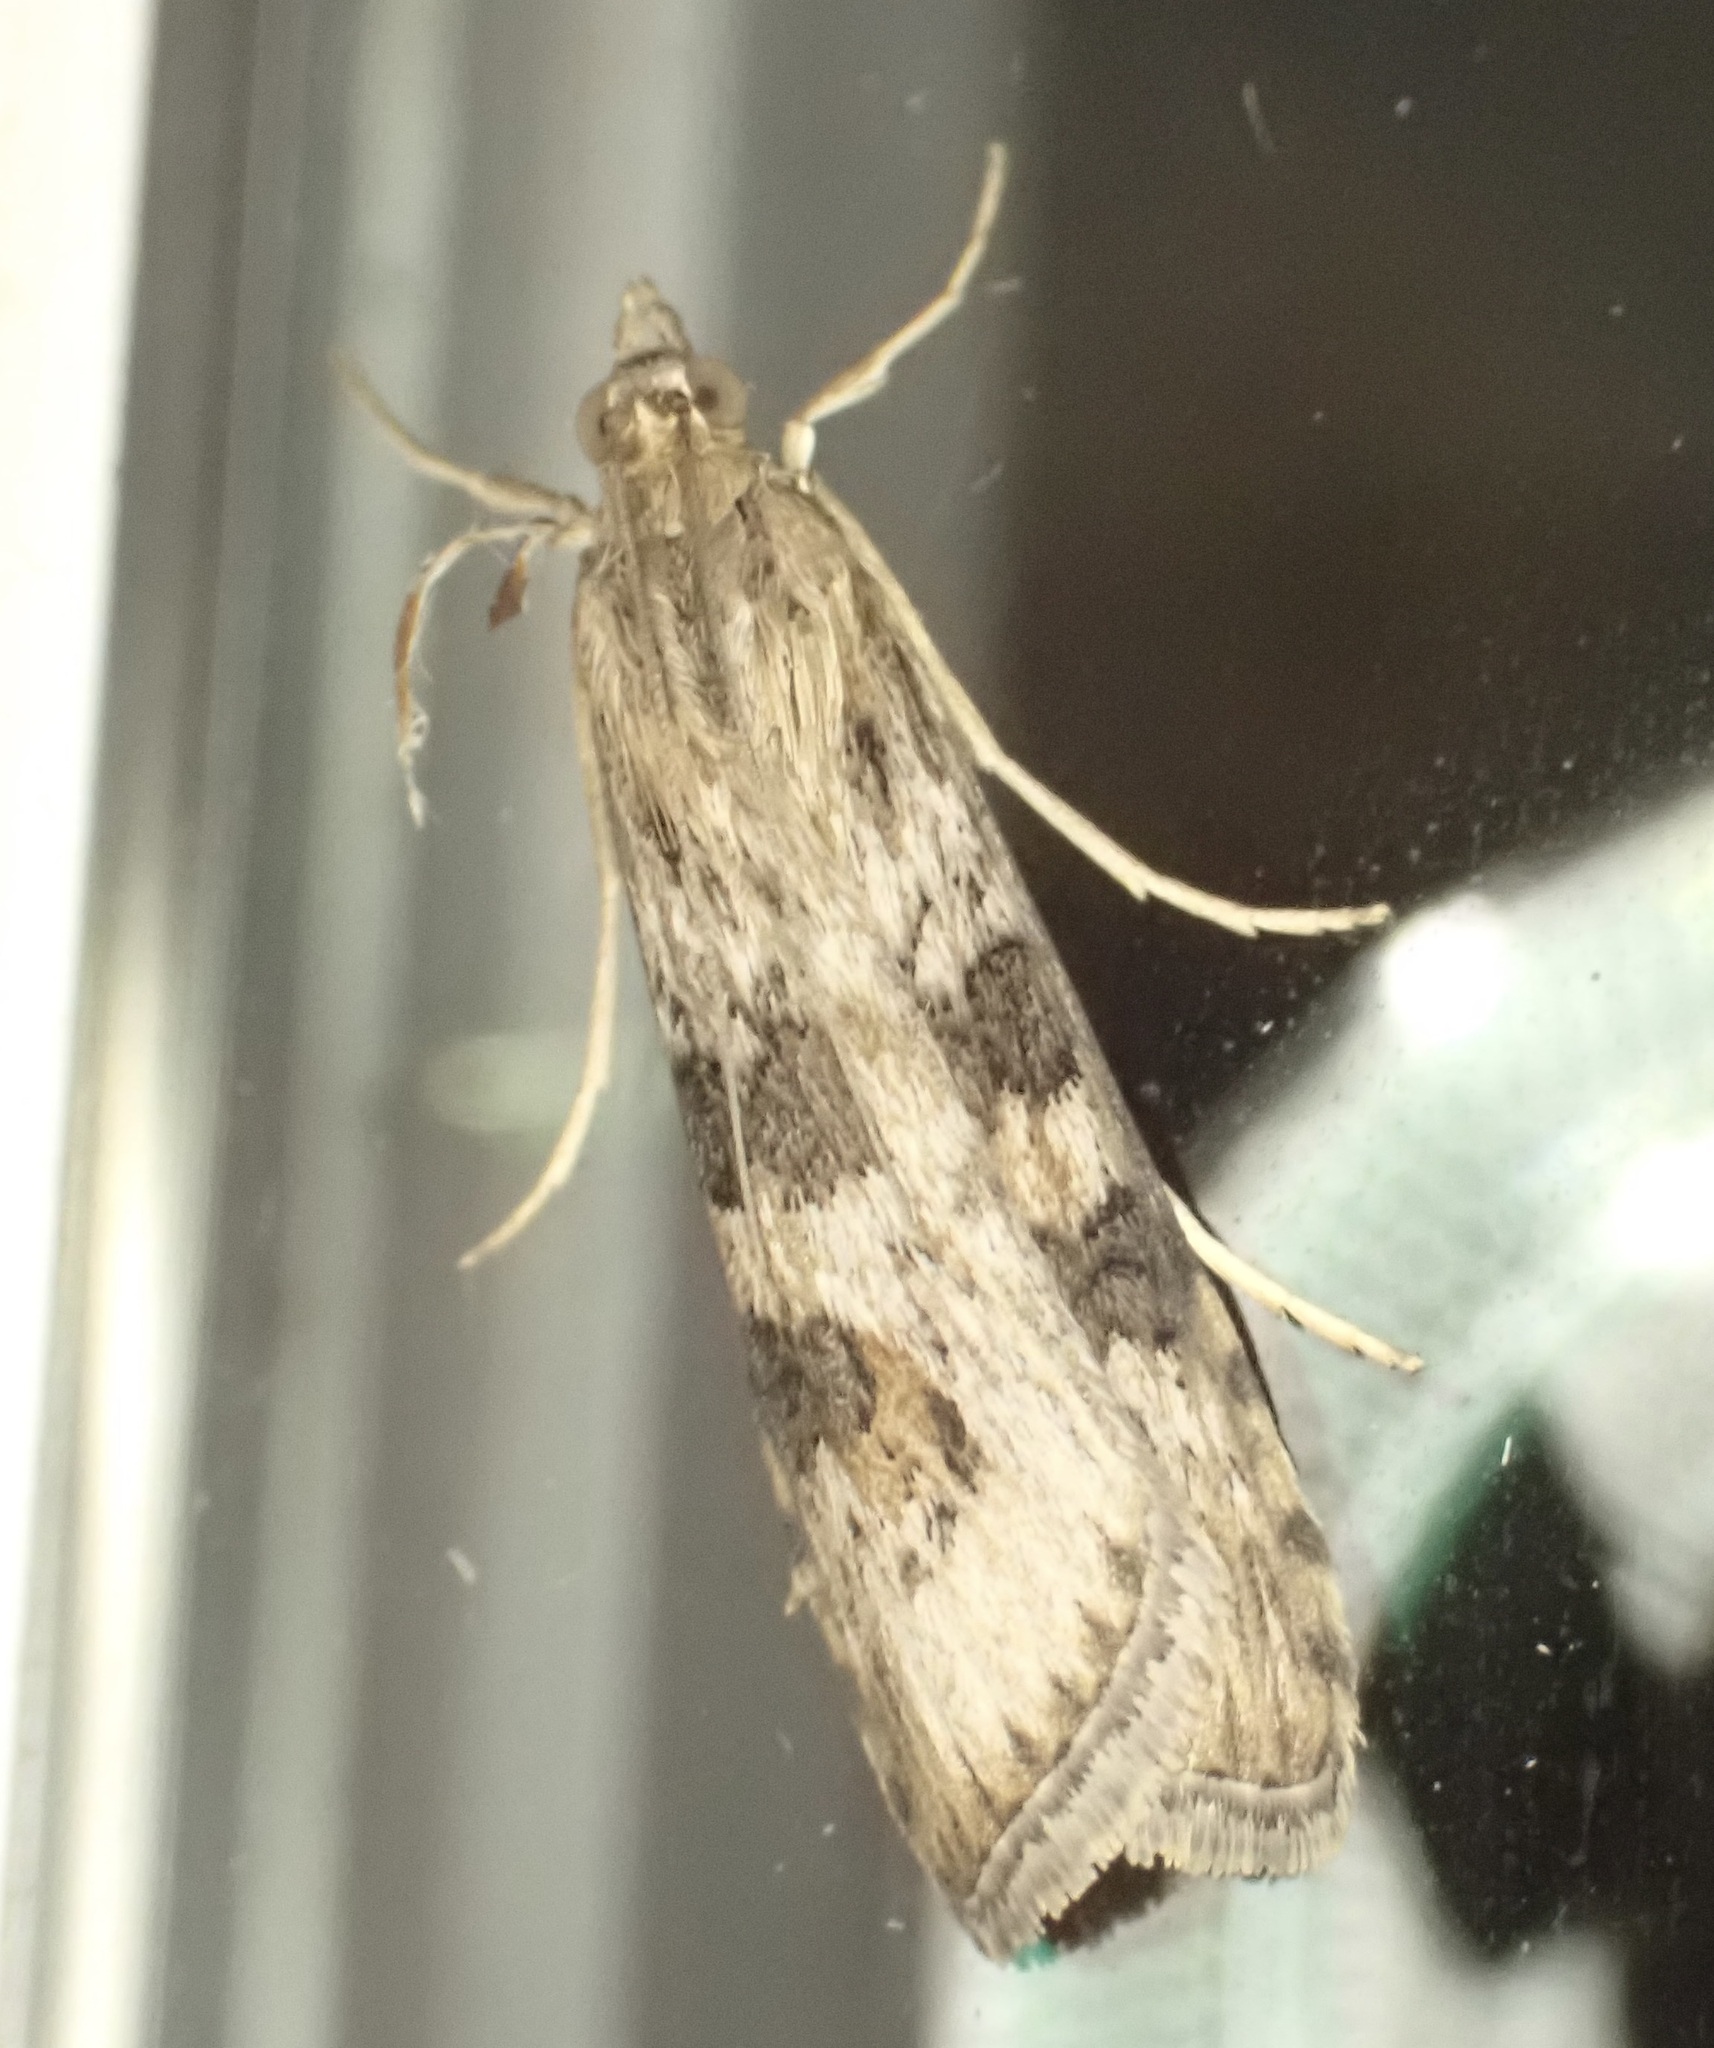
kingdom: Animalia
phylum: Arthropoda
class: Insecta
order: Lepidoptera
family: Crambidae
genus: Nomophila
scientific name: Nomophila nearctica
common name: American rush veneer
